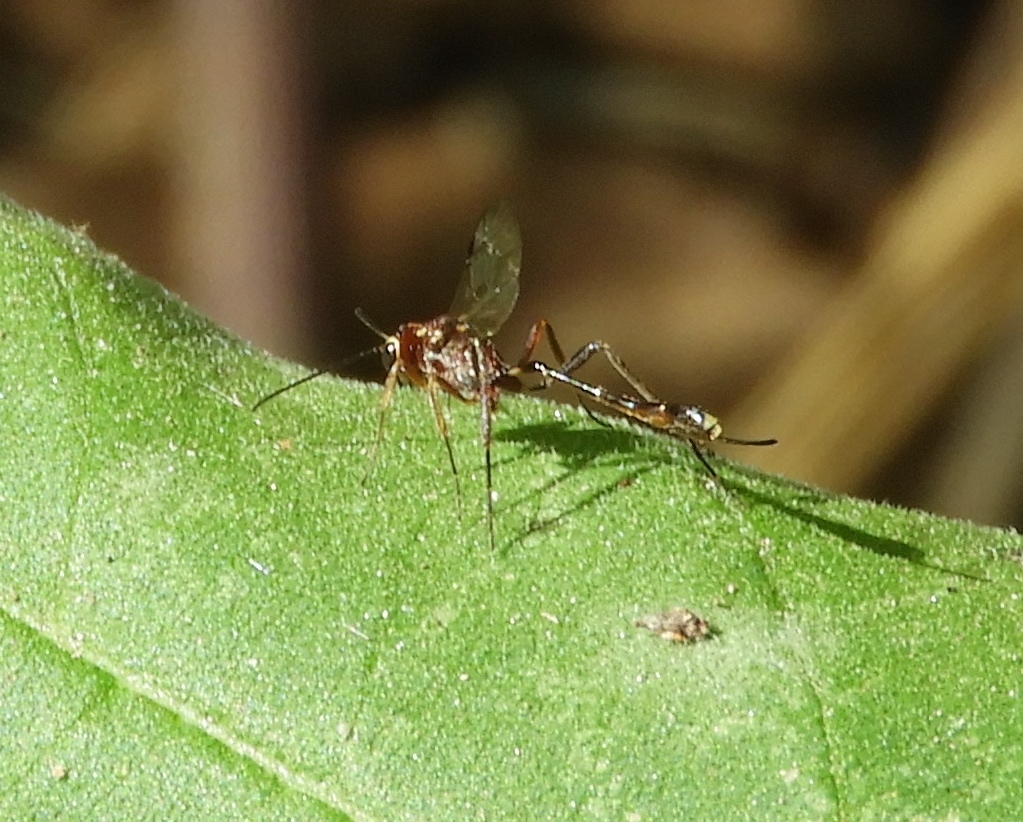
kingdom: Animalia
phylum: Arthropoda
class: Insecta
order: Hymenoptera
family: Ichneumonidae
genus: Anomalon
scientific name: Anomalon
